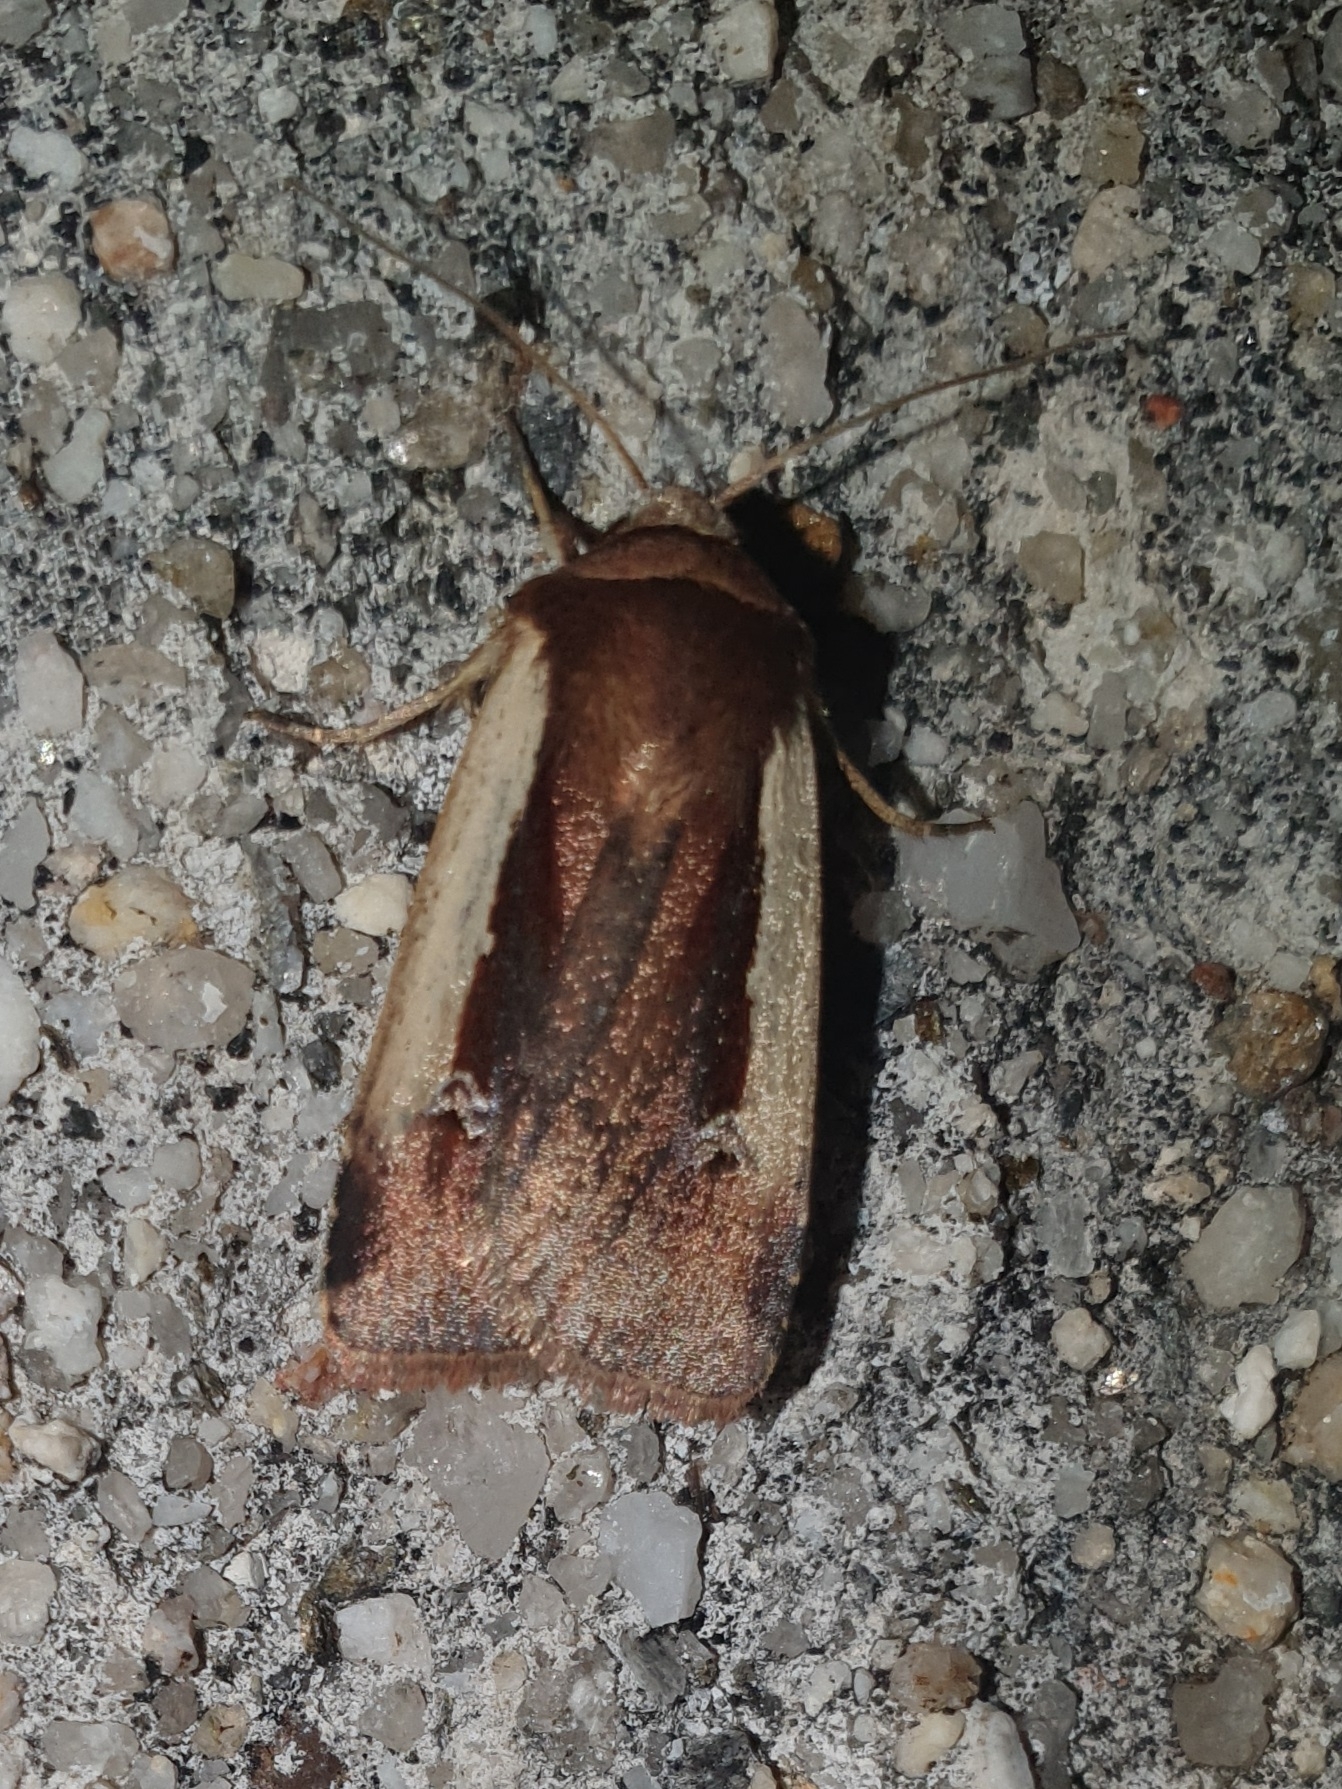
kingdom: Animalia
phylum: Arthropoda
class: Insecta
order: Lepidoptera
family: Noctuidae
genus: Ochropleura
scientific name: Ochropleura plecta
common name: Flame shoulder
